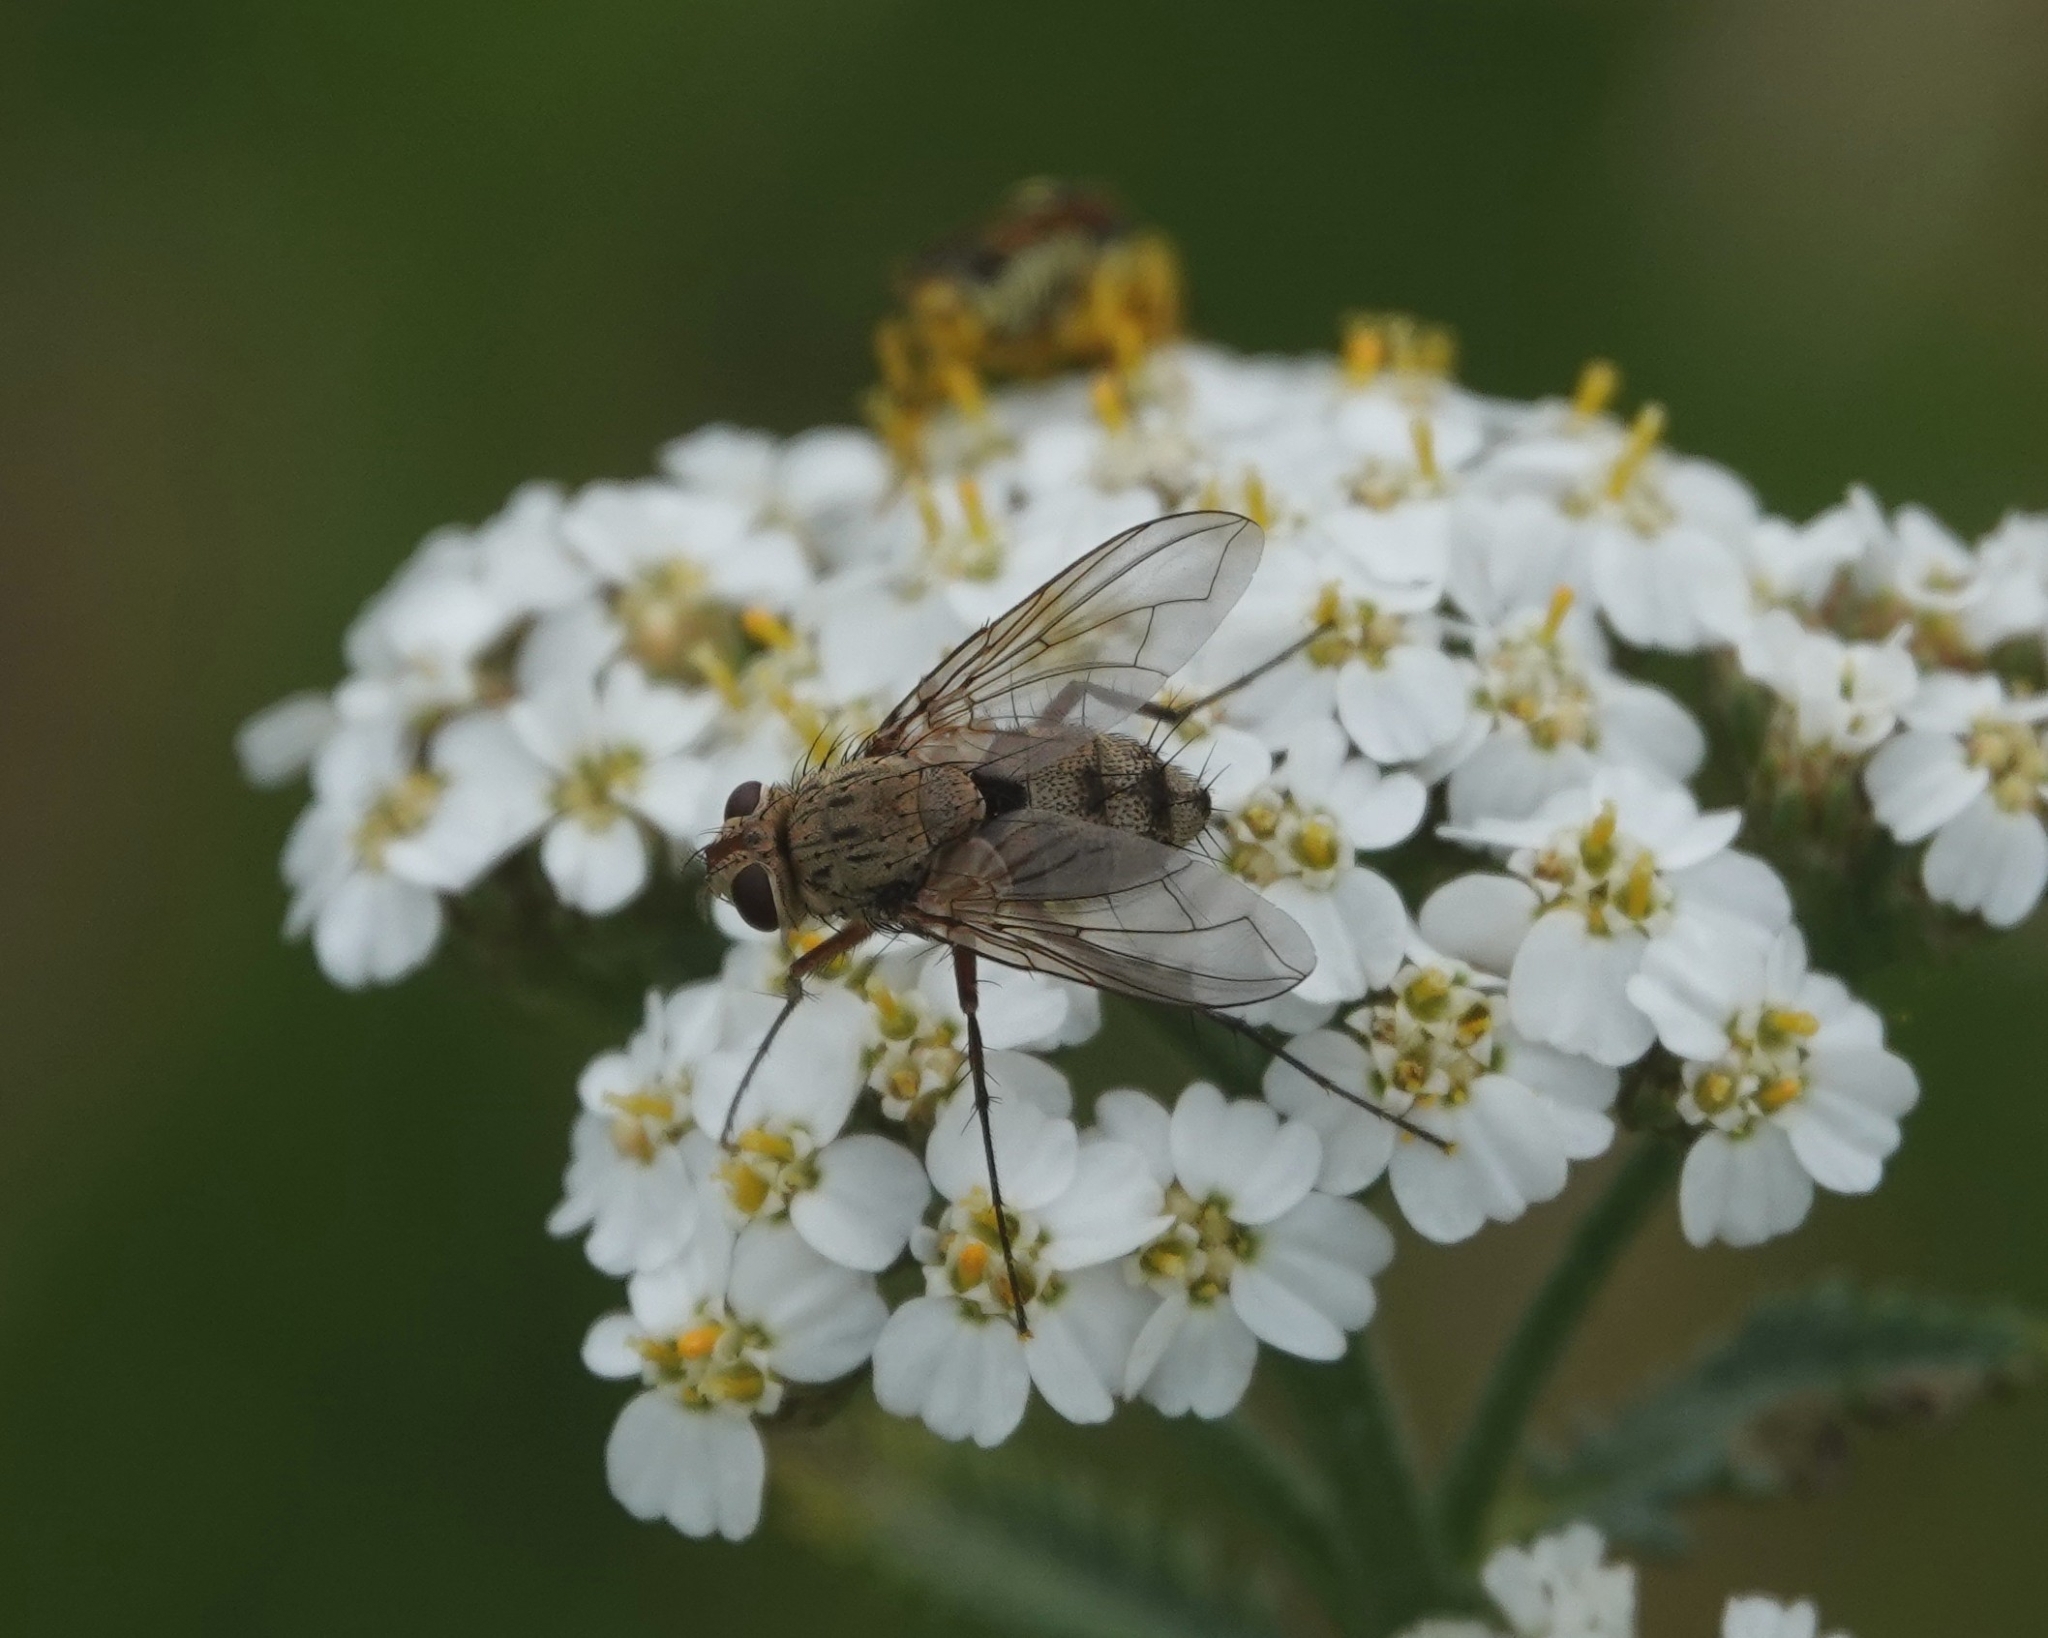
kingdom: Animalia
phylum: Arthropoda
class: Insecta
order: Diptera
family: Tachinidae
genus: Prosena
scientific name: Prosena siberita
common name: Parasitic fly
